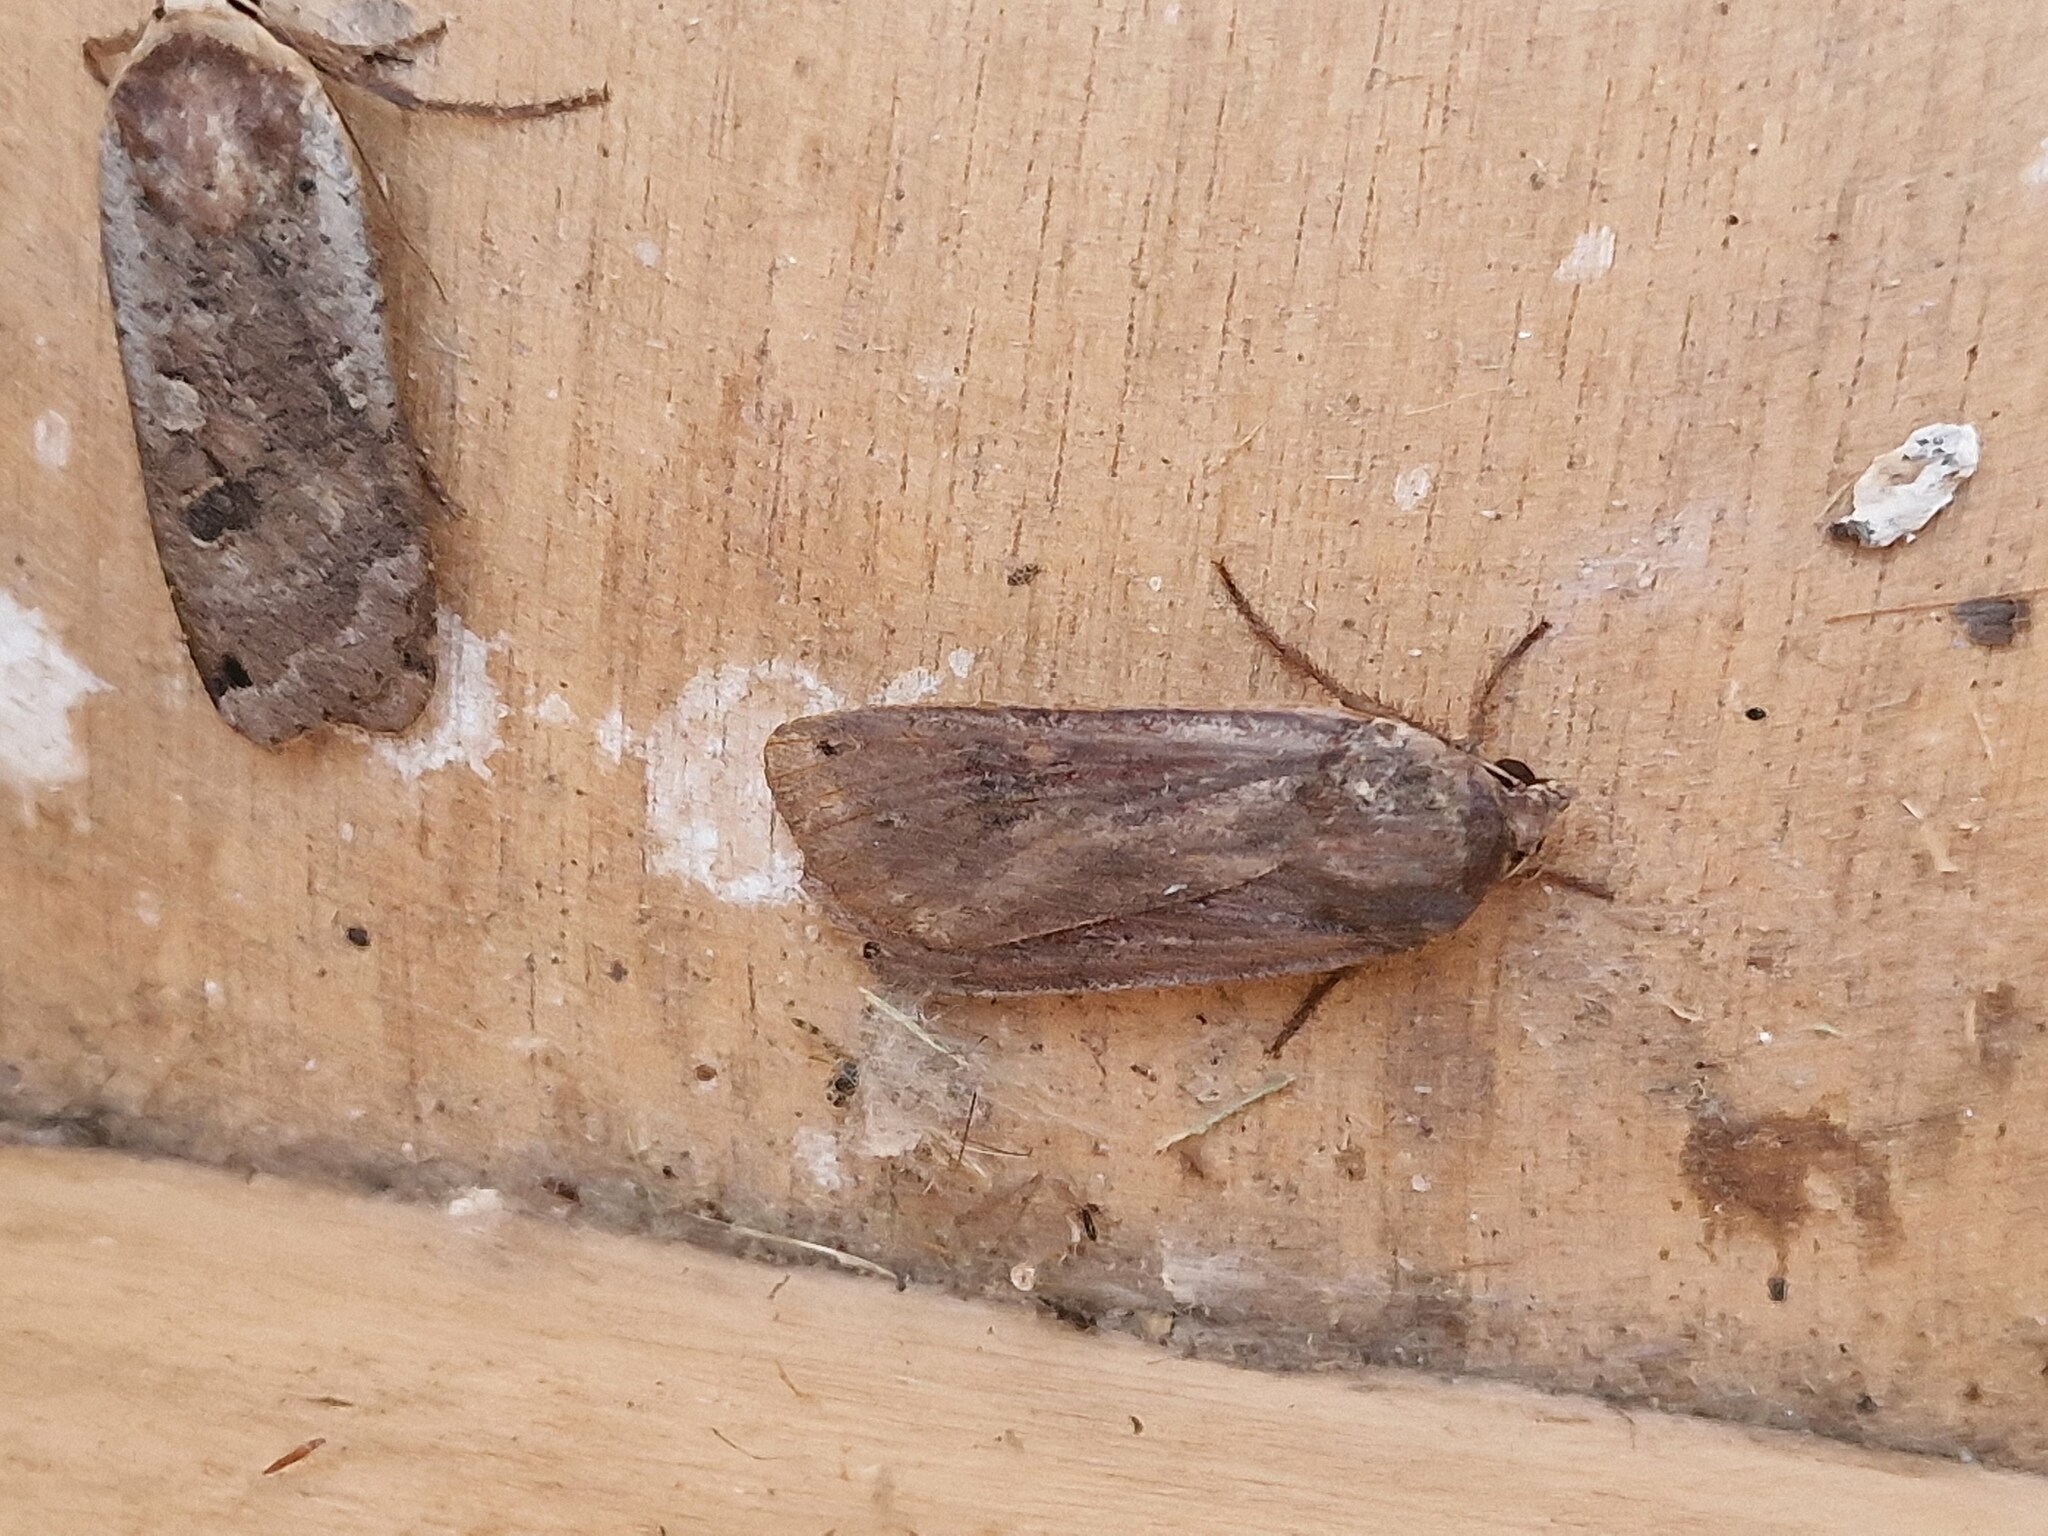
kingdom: Animalia
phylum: Arthropoda
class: Insecta
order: Lepidoptera
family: Noctuidae
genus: Noctua
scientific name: Noctua pronuba
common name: Large yellow underwing
